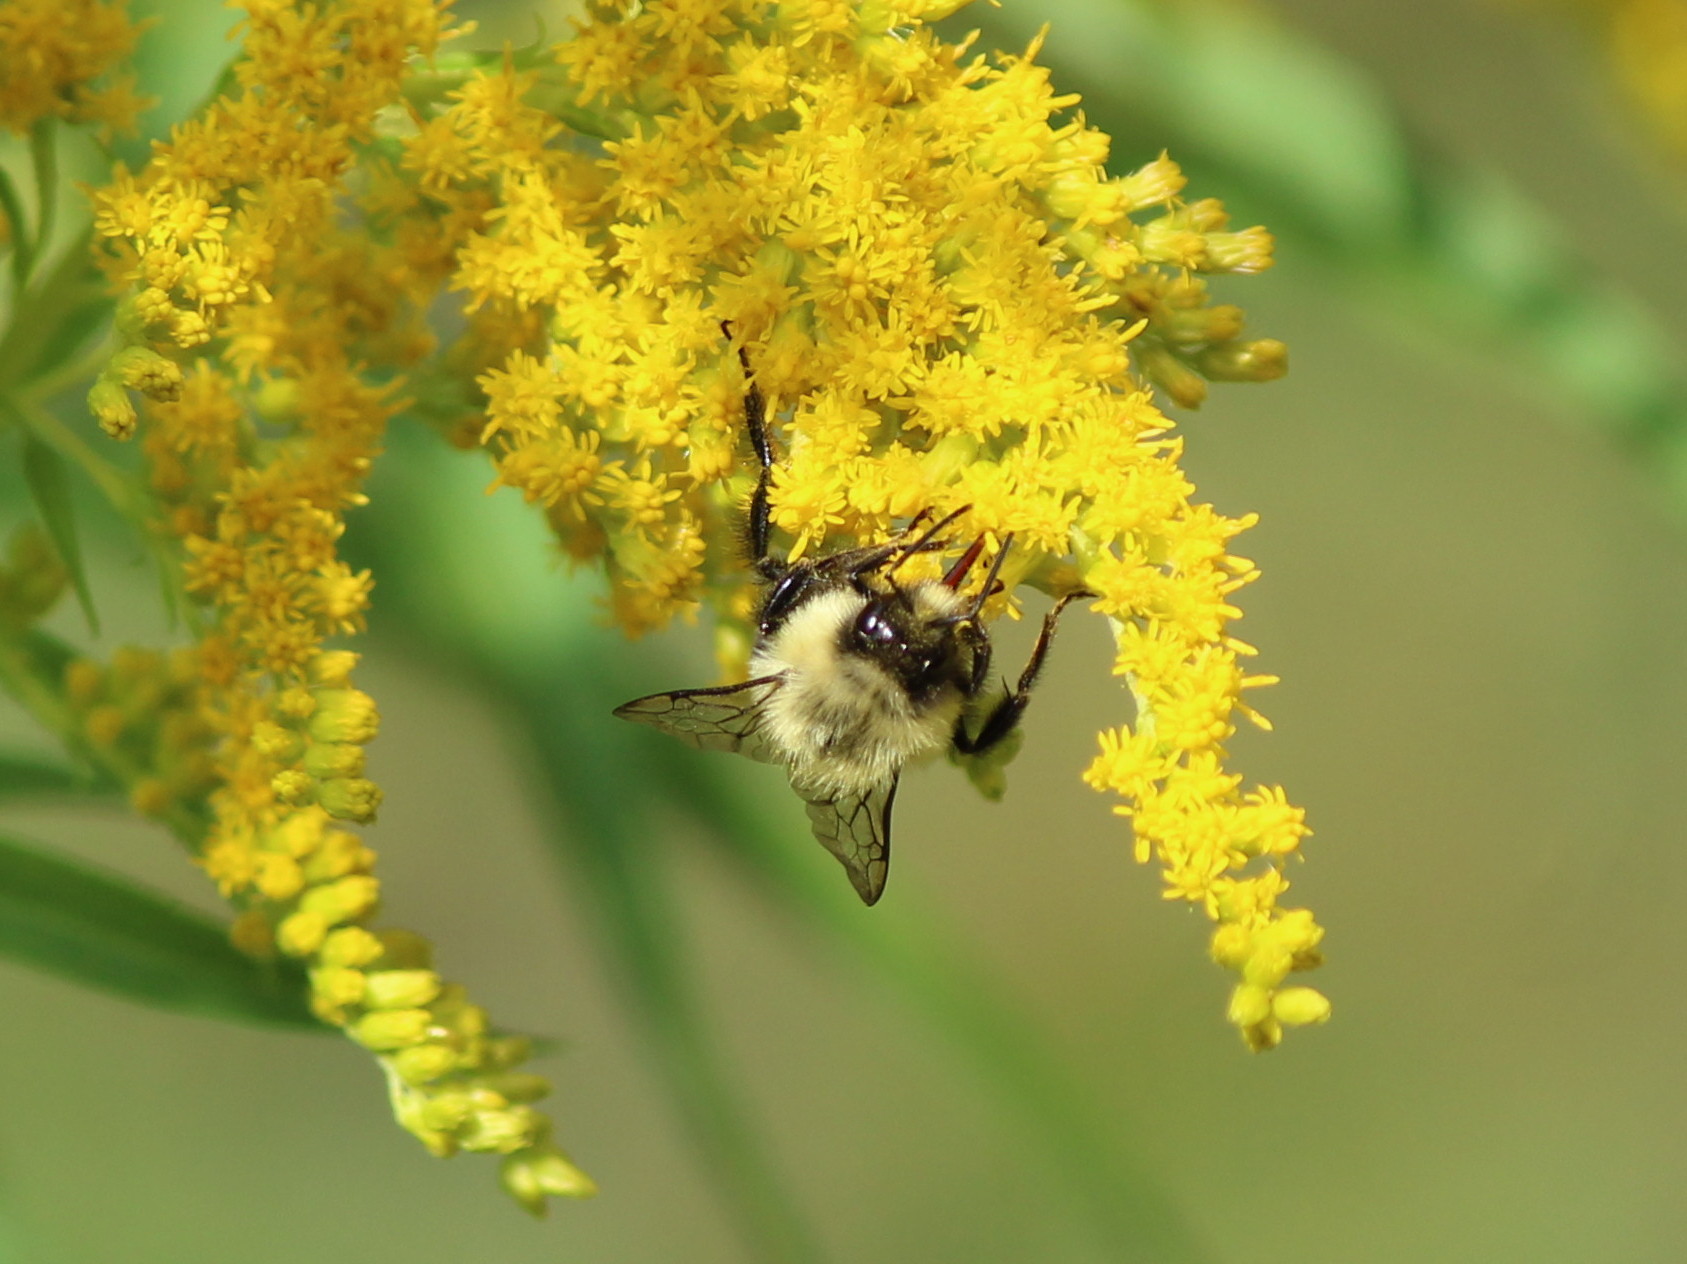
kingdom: Animalia
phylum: Arthropoda
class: Insecta
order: Hymenoptera
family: Apidae
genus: Bombus
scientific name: Bombus impatiens
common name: Common eastern bumble bee
